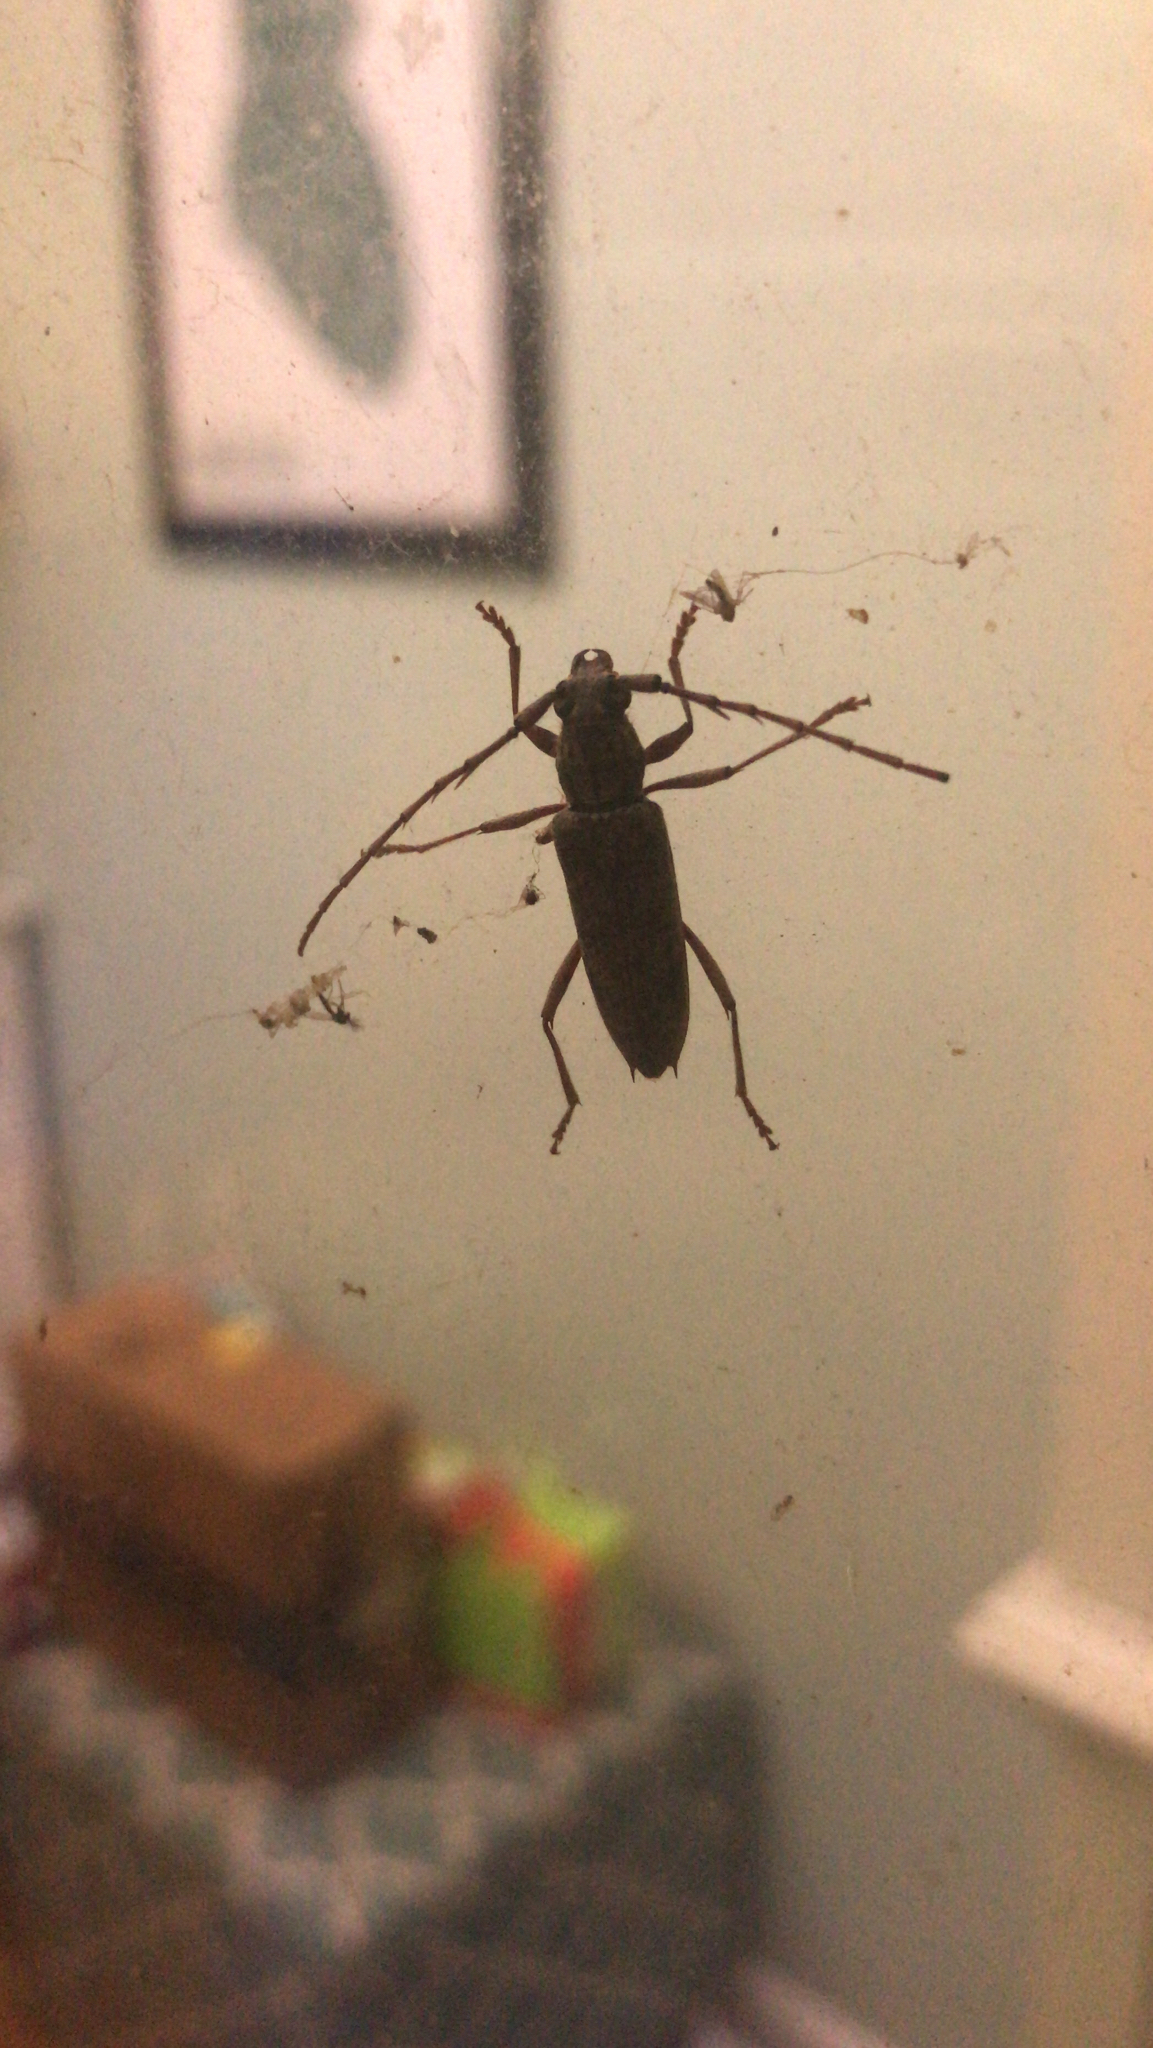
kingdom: Animalia
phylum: Arthropoda
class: Insecta
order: Coleoptera
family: Cerambycidae
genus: Elaphidion
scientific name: Elaphidion mucronatum
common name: Spined oak borer
